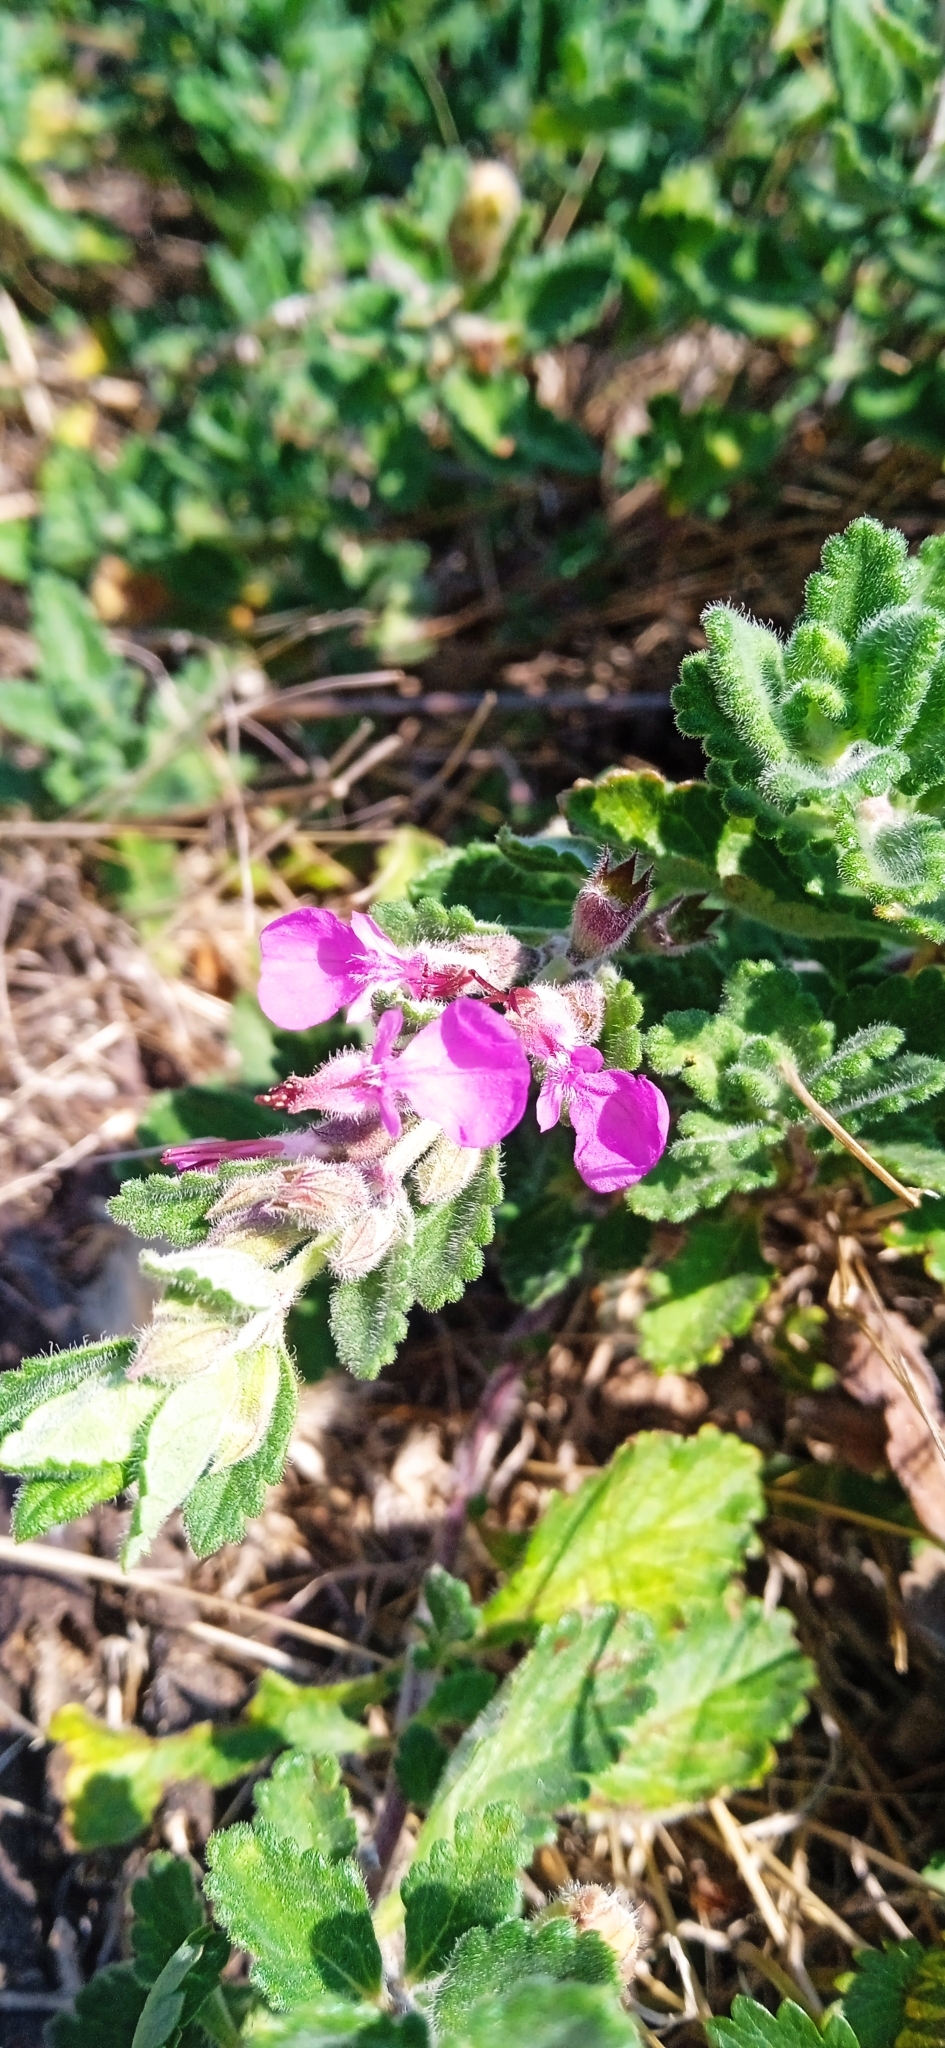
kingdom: Plantae
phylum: Tracheophyta
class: Magnoliopsida
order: Lamiales
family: Lamiaceae
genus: Teucrium
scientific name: Teucrium chamaedrys
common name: Wall germander
